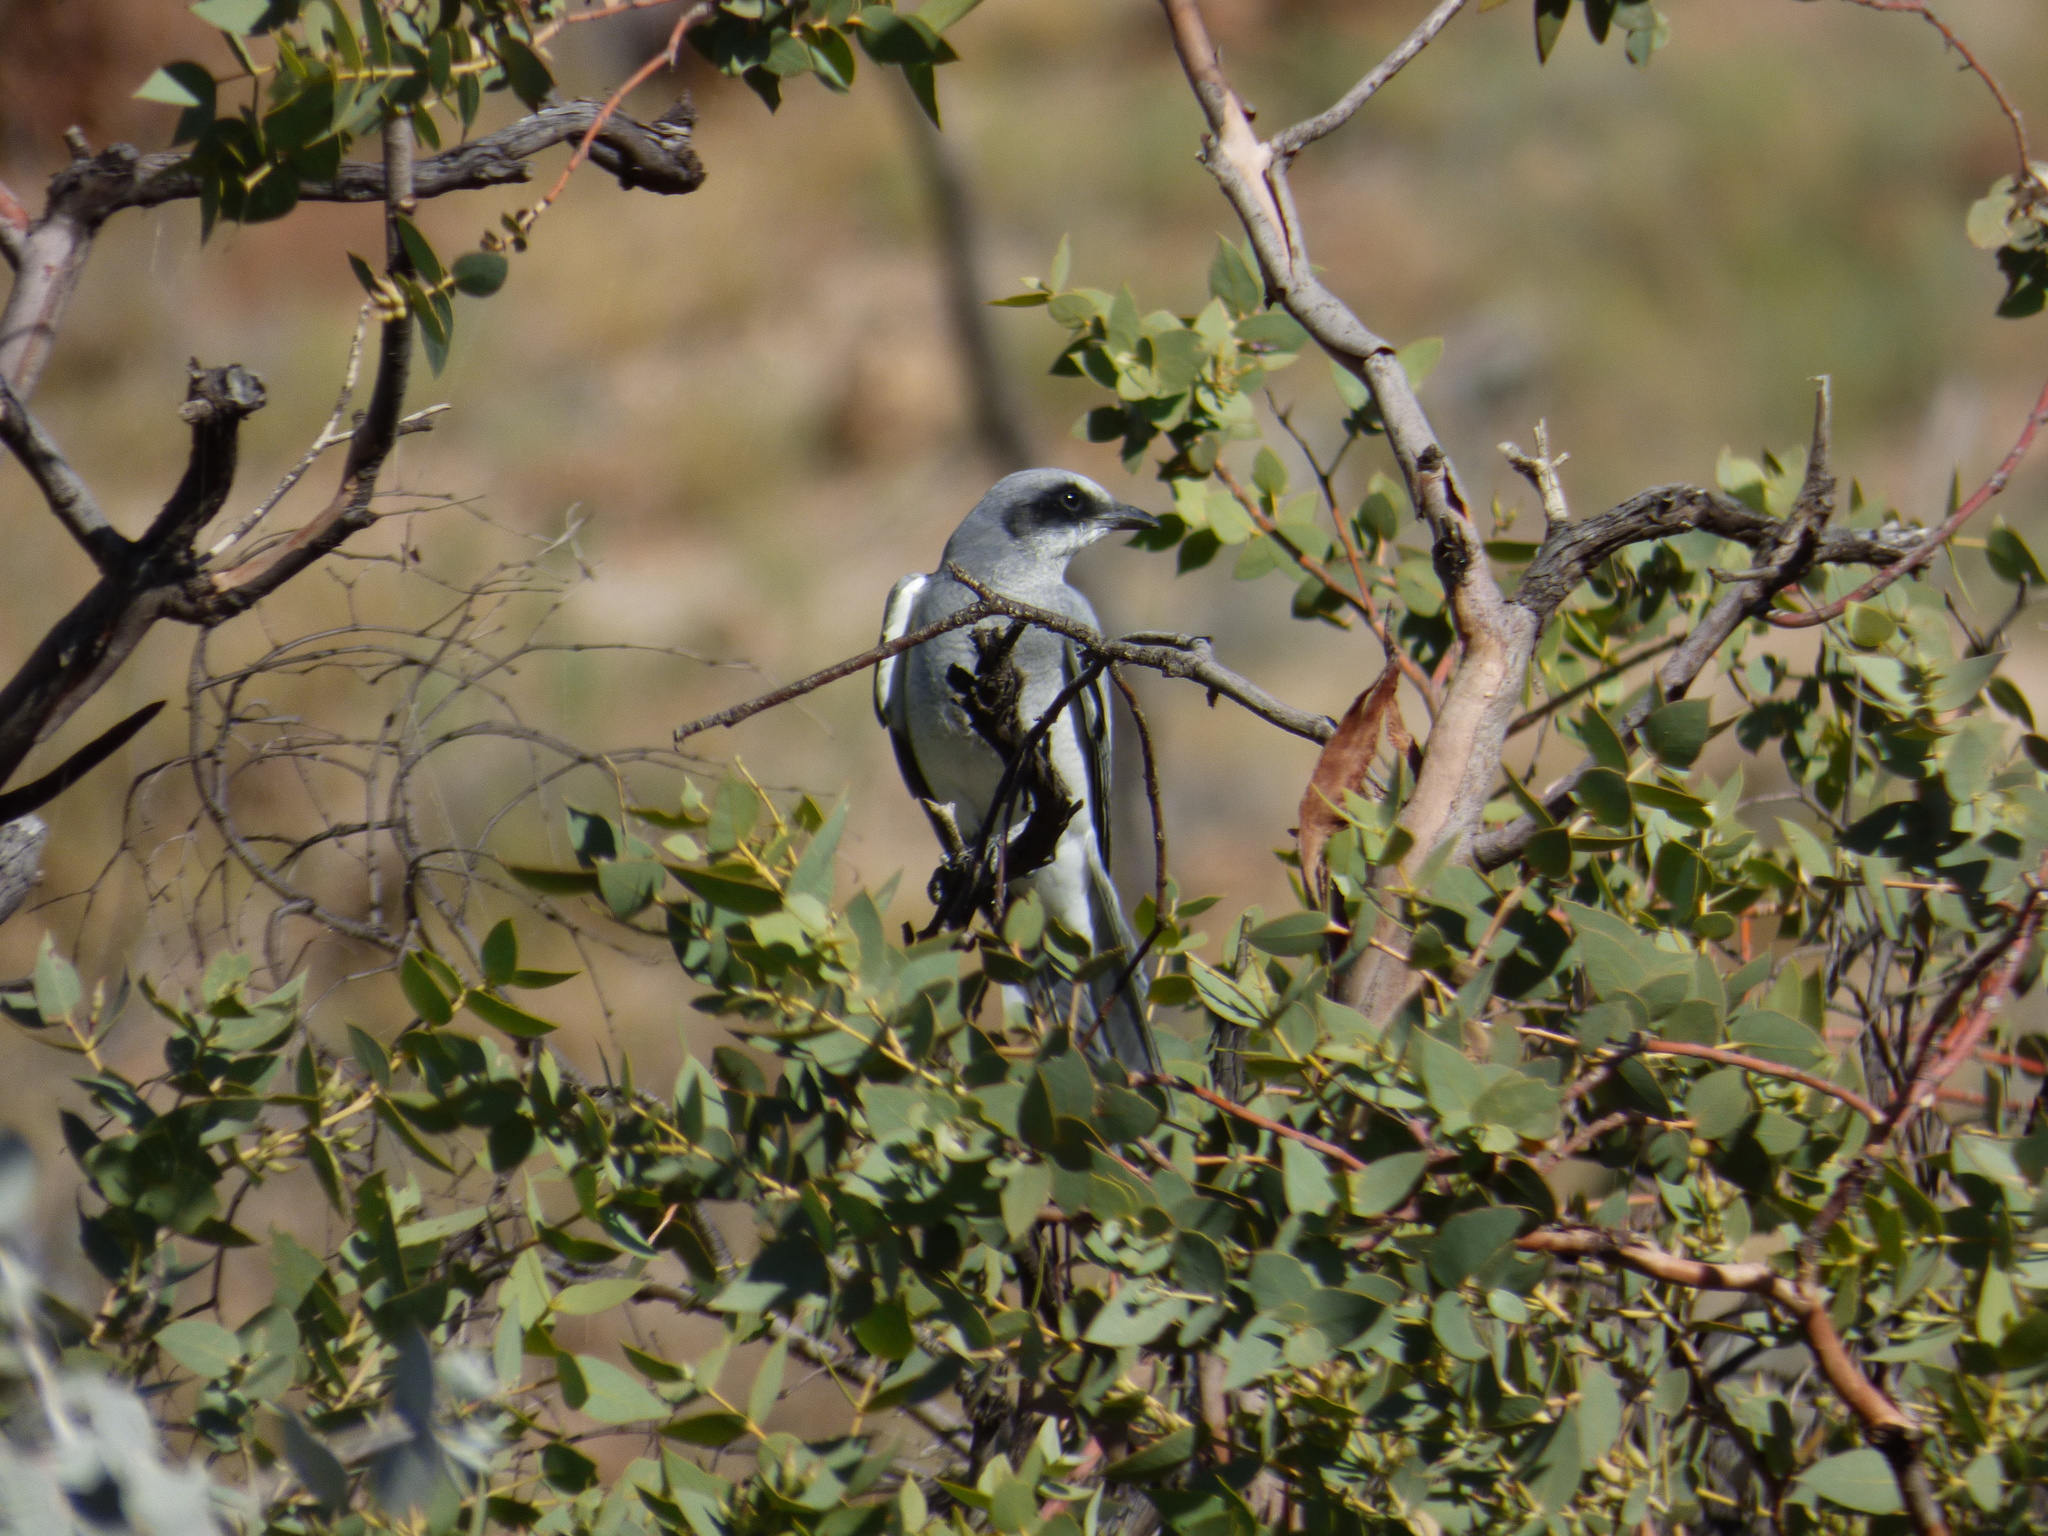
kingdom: Animalia
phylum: Chordata
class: Aves
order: Passeriformes
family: Campephagidae
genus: Coracina
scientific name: Coracina novaehollandiae
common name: Black-faced cuckooshrike
